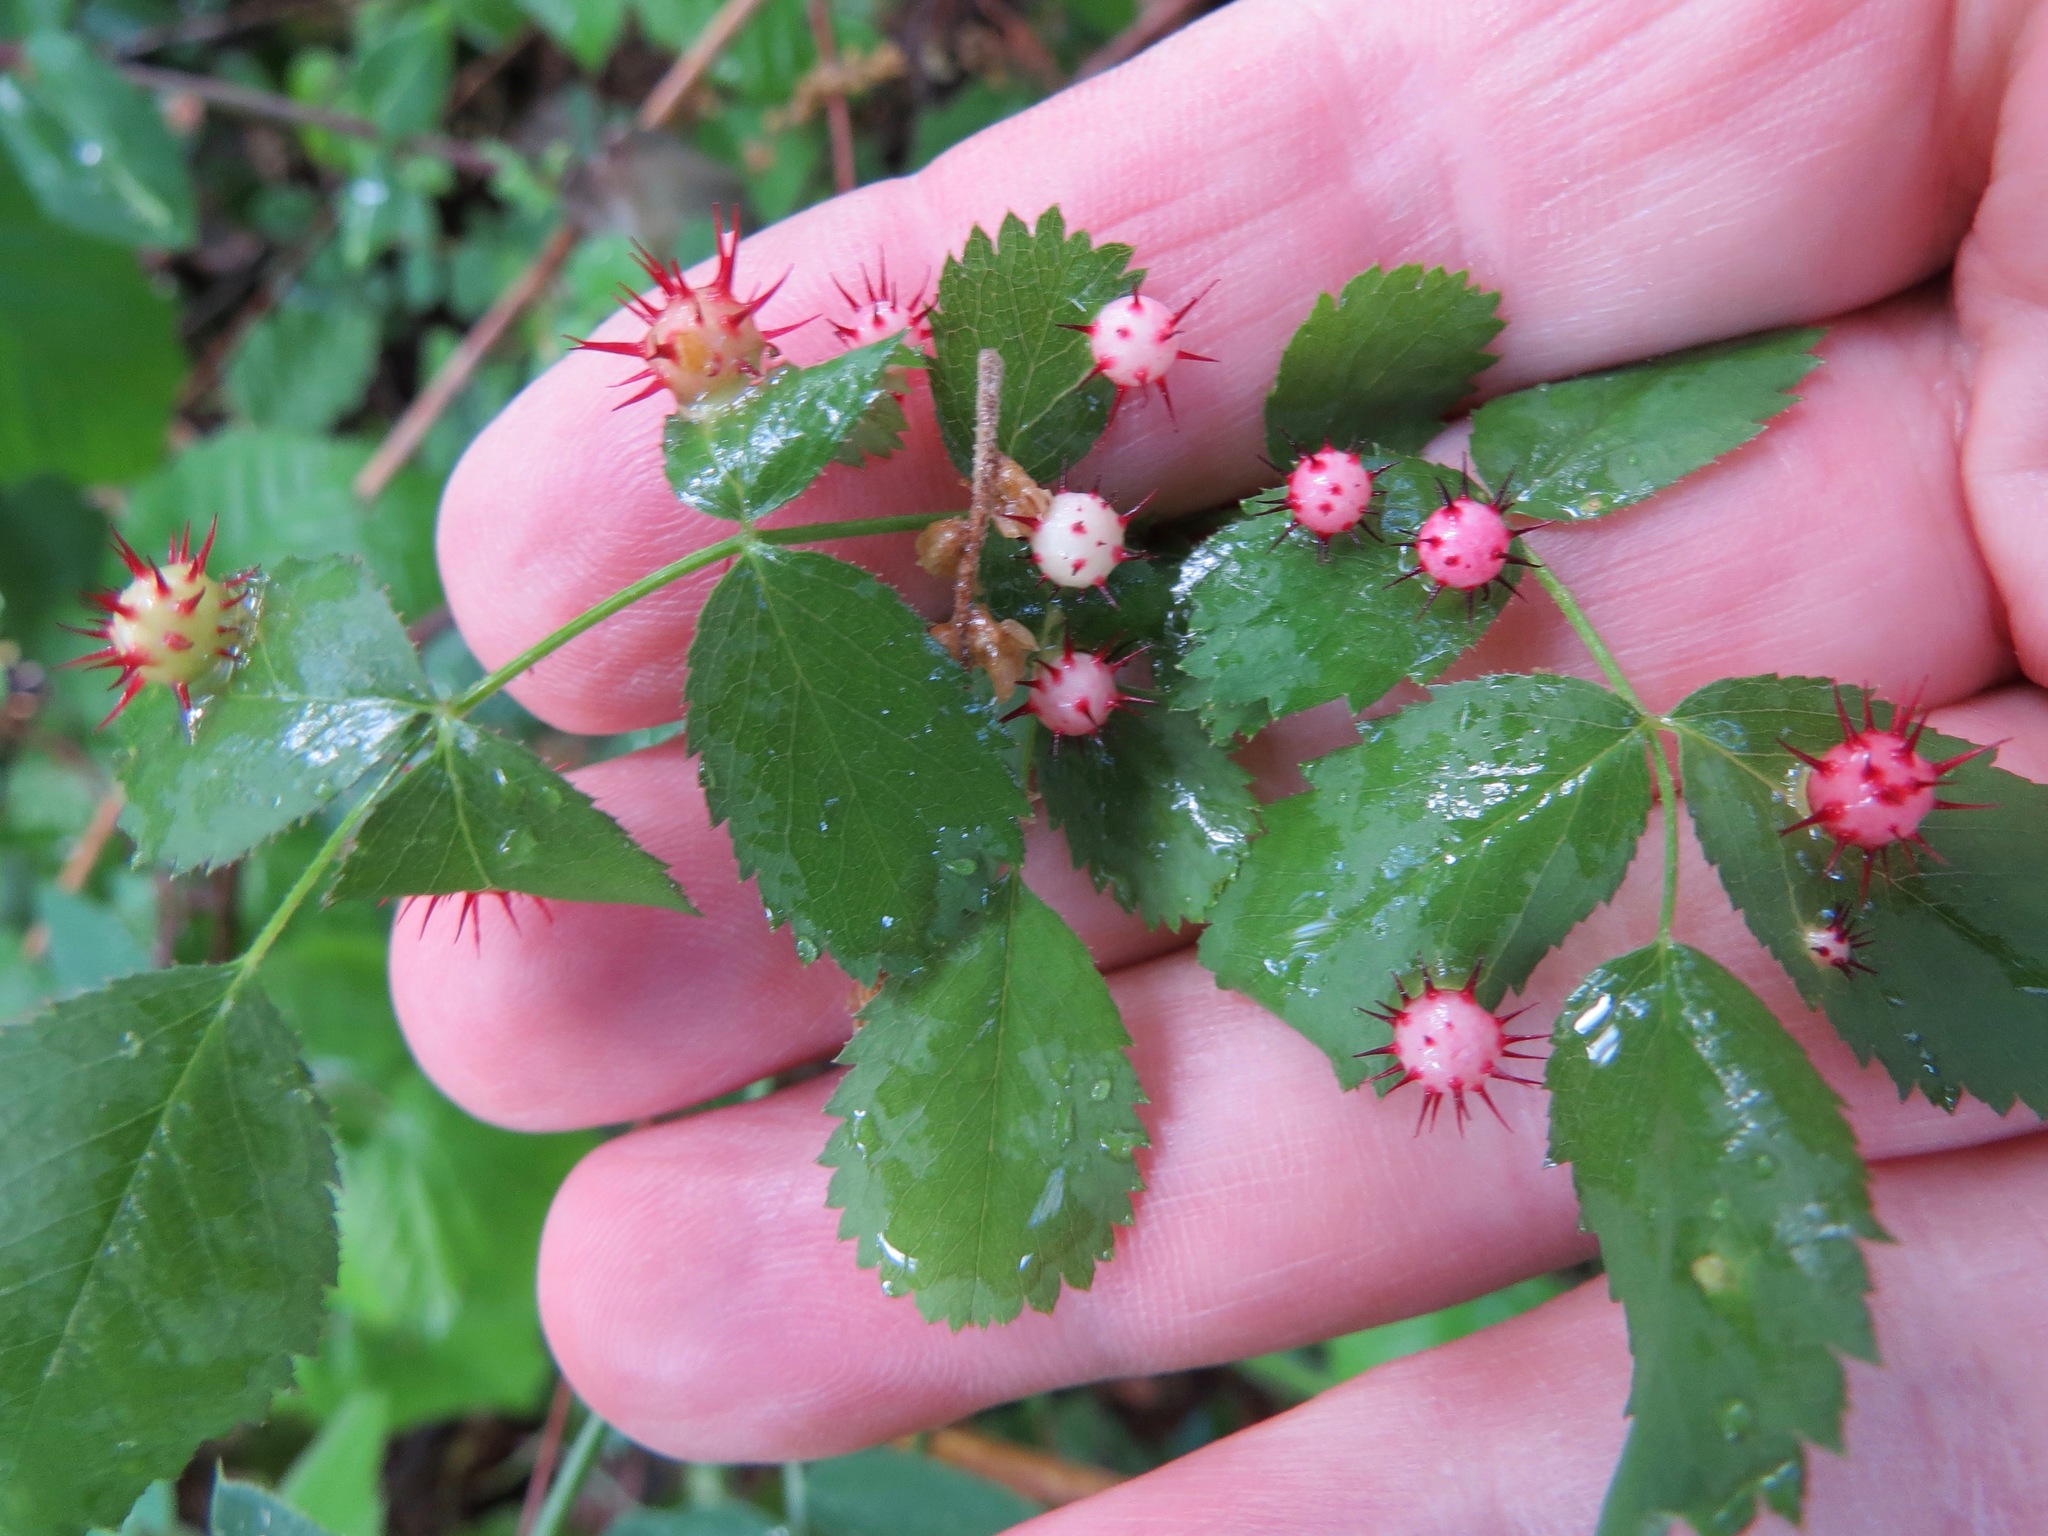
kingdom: Animalia
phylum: Arthropoda
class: Insecta
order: Hymenoptera
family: Cynipidae
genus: Diplolepis
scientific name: Diplolepis polita
